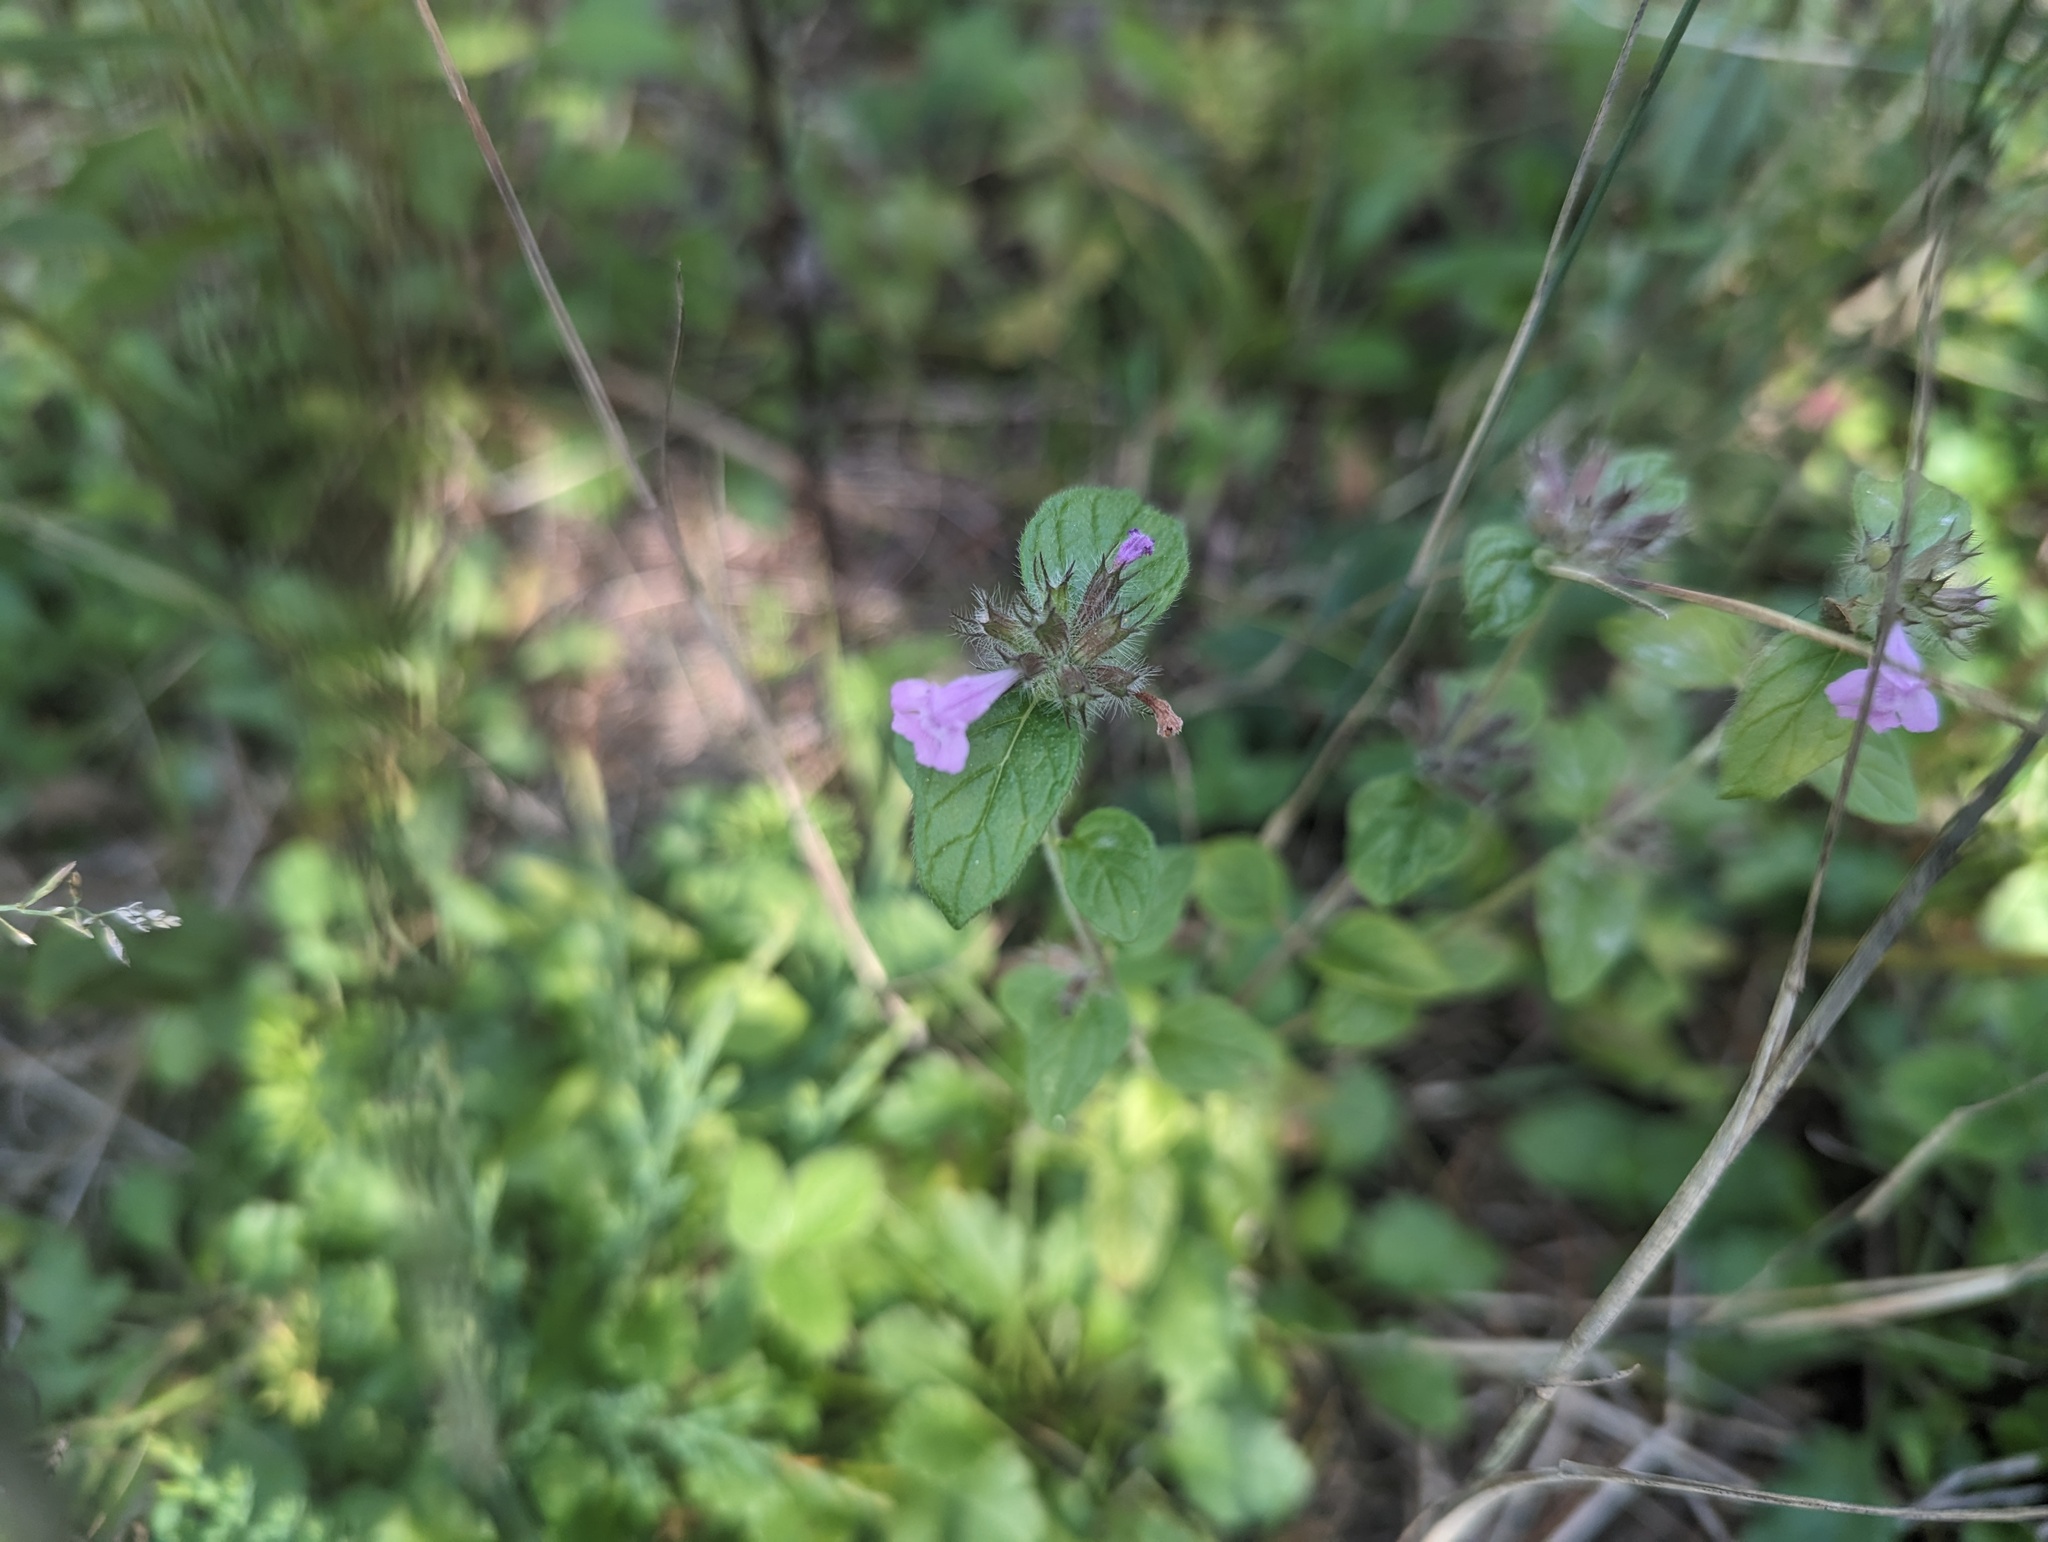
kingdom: Plantae
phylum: Tracheophyta
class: Magnoliopsida
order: Lamiales
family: Lamiaceae
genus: Clinopodium
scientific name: Clinopodium vulgare
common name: Wild basil
